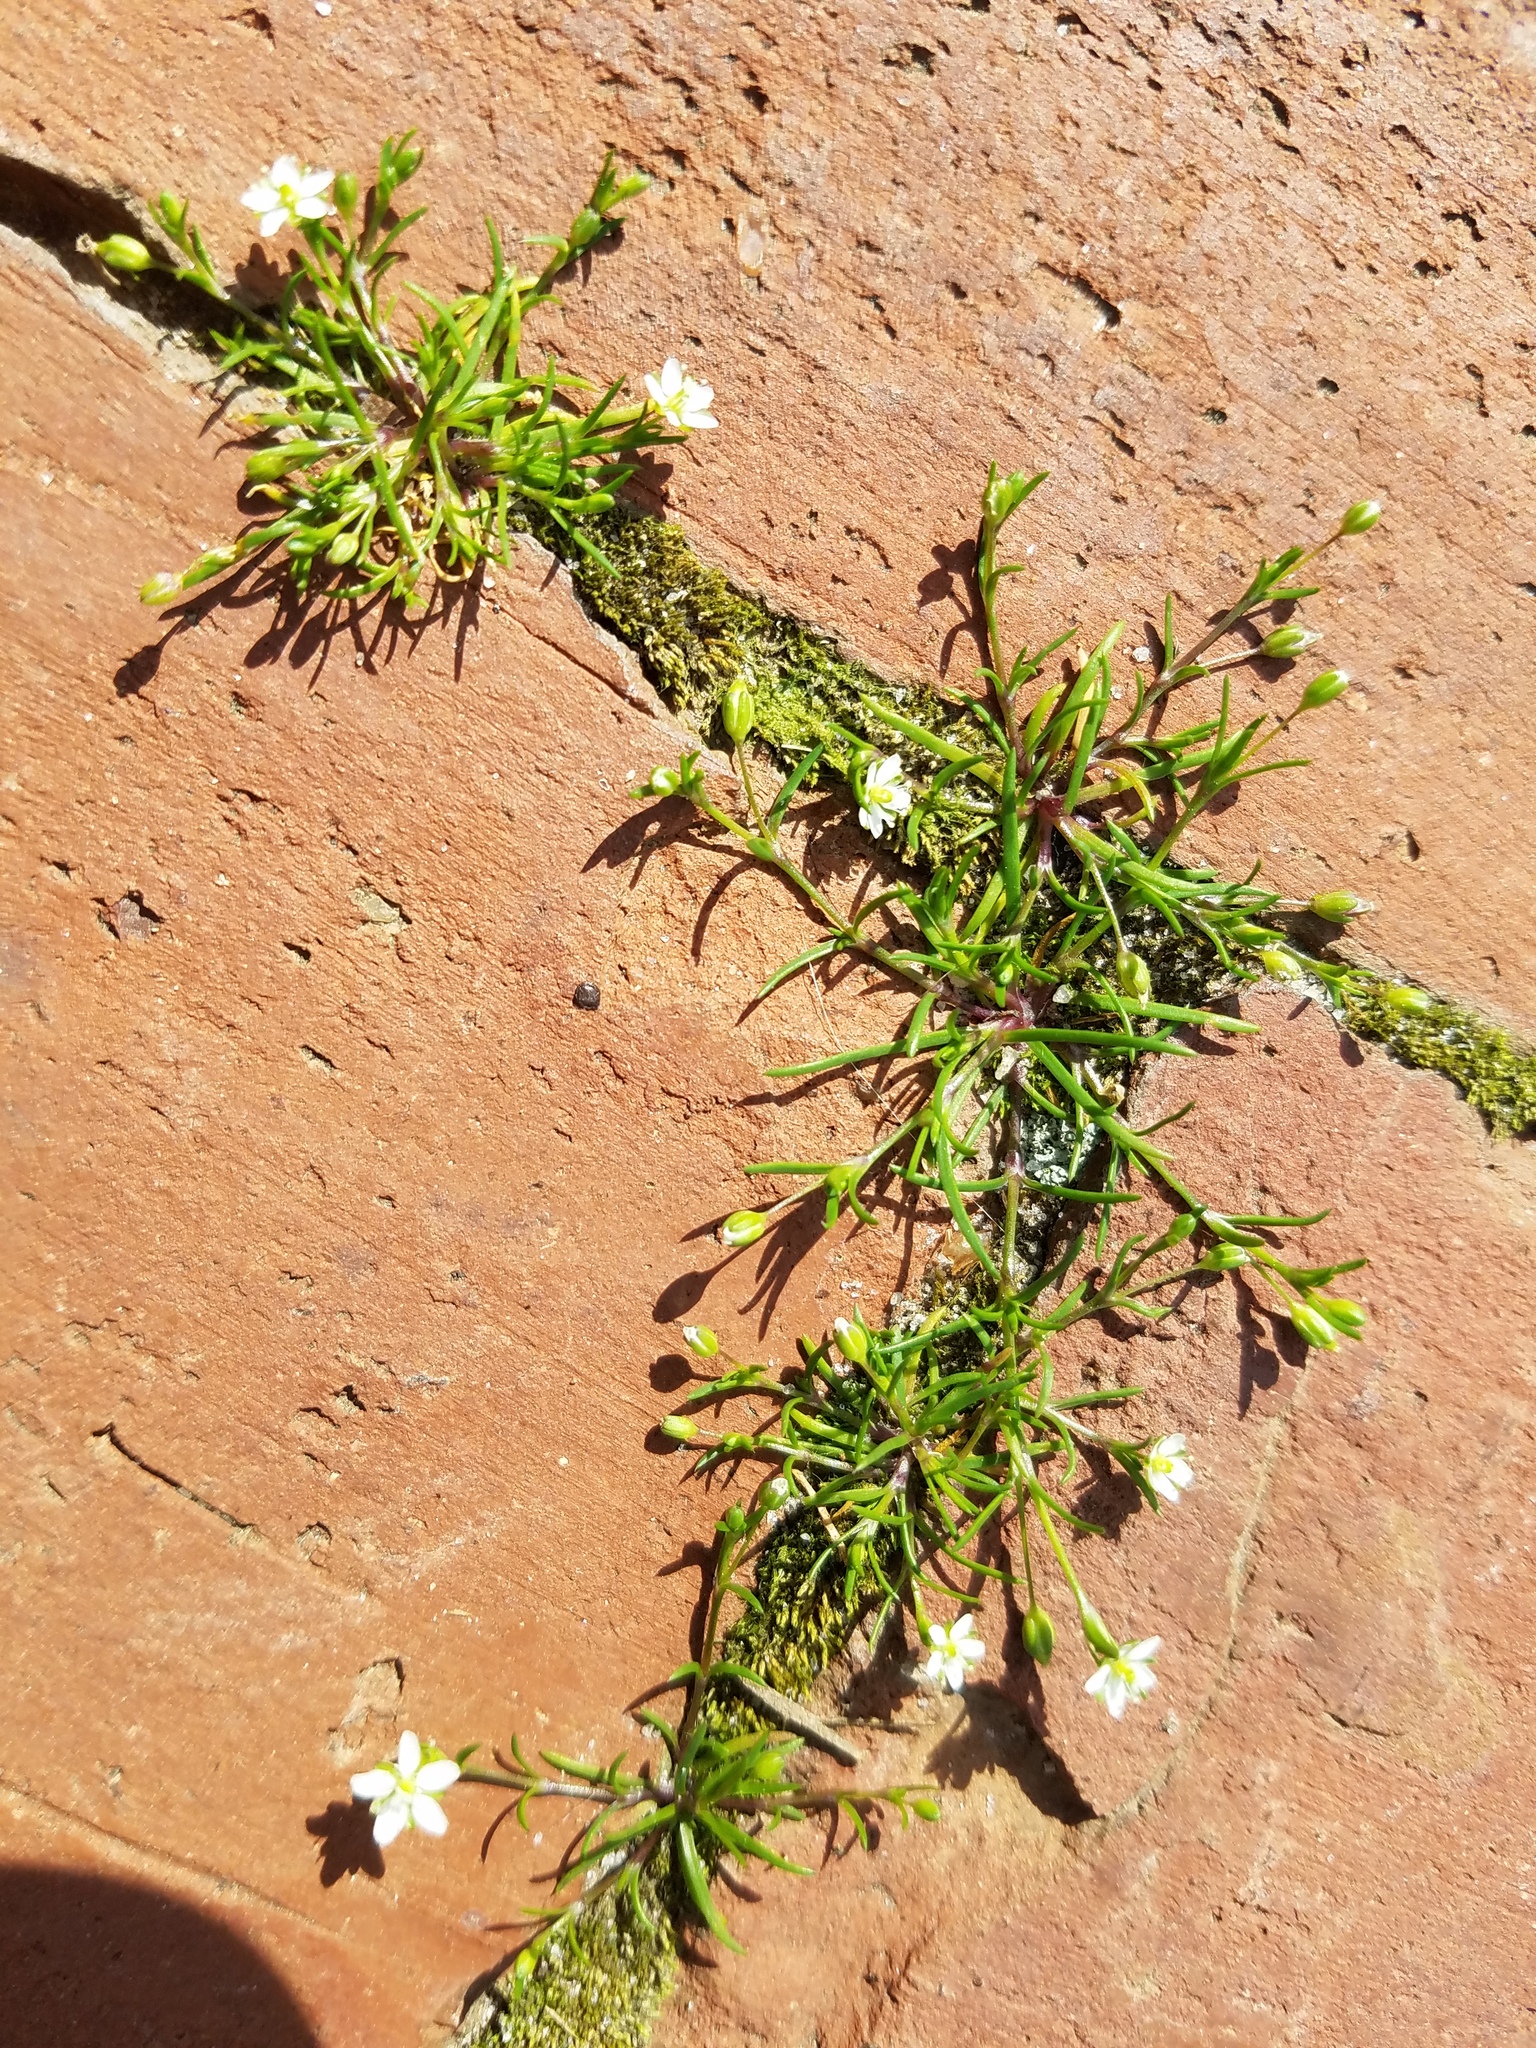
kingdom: Plantae
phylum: Tracheophyta
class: Magnoliopsida
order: Caryophyllales
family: Caryophyllaceae
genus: Sagina
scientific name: Sagina decumbens
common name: Decumbent pearlwort
